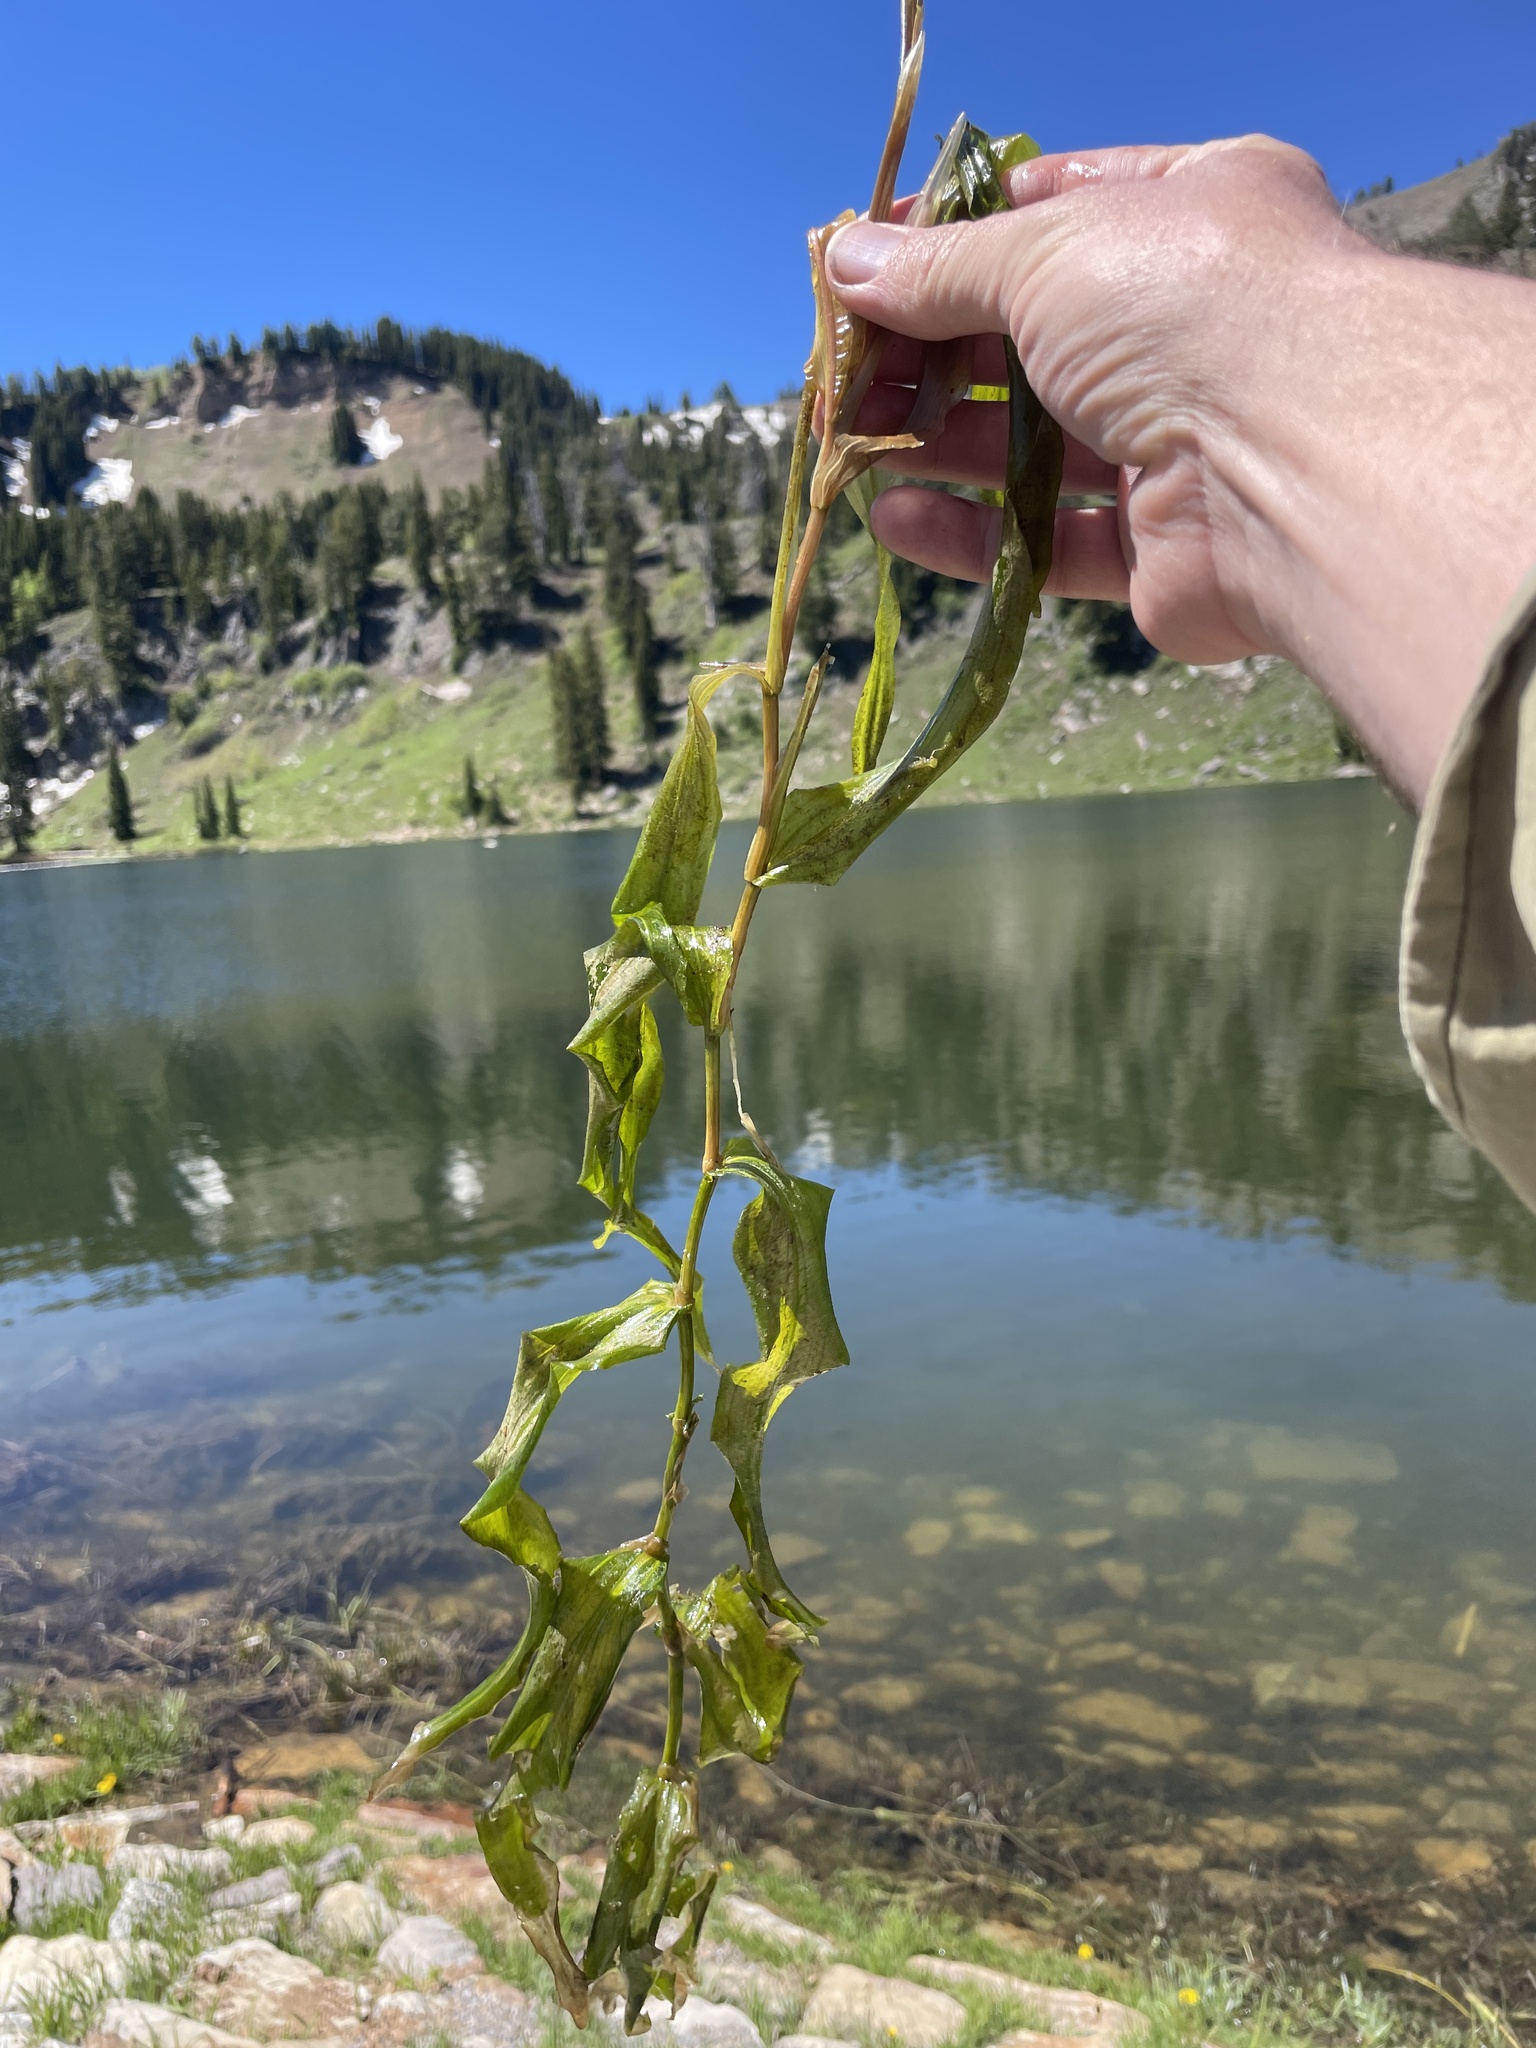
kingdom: Plantae
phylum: Tracheophyta
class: Liliopsida
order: Alismatales
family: Potamogetonaceae
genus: Potamogeton
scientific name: Potamogeton praelongus
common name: Long-stalked pondweed
